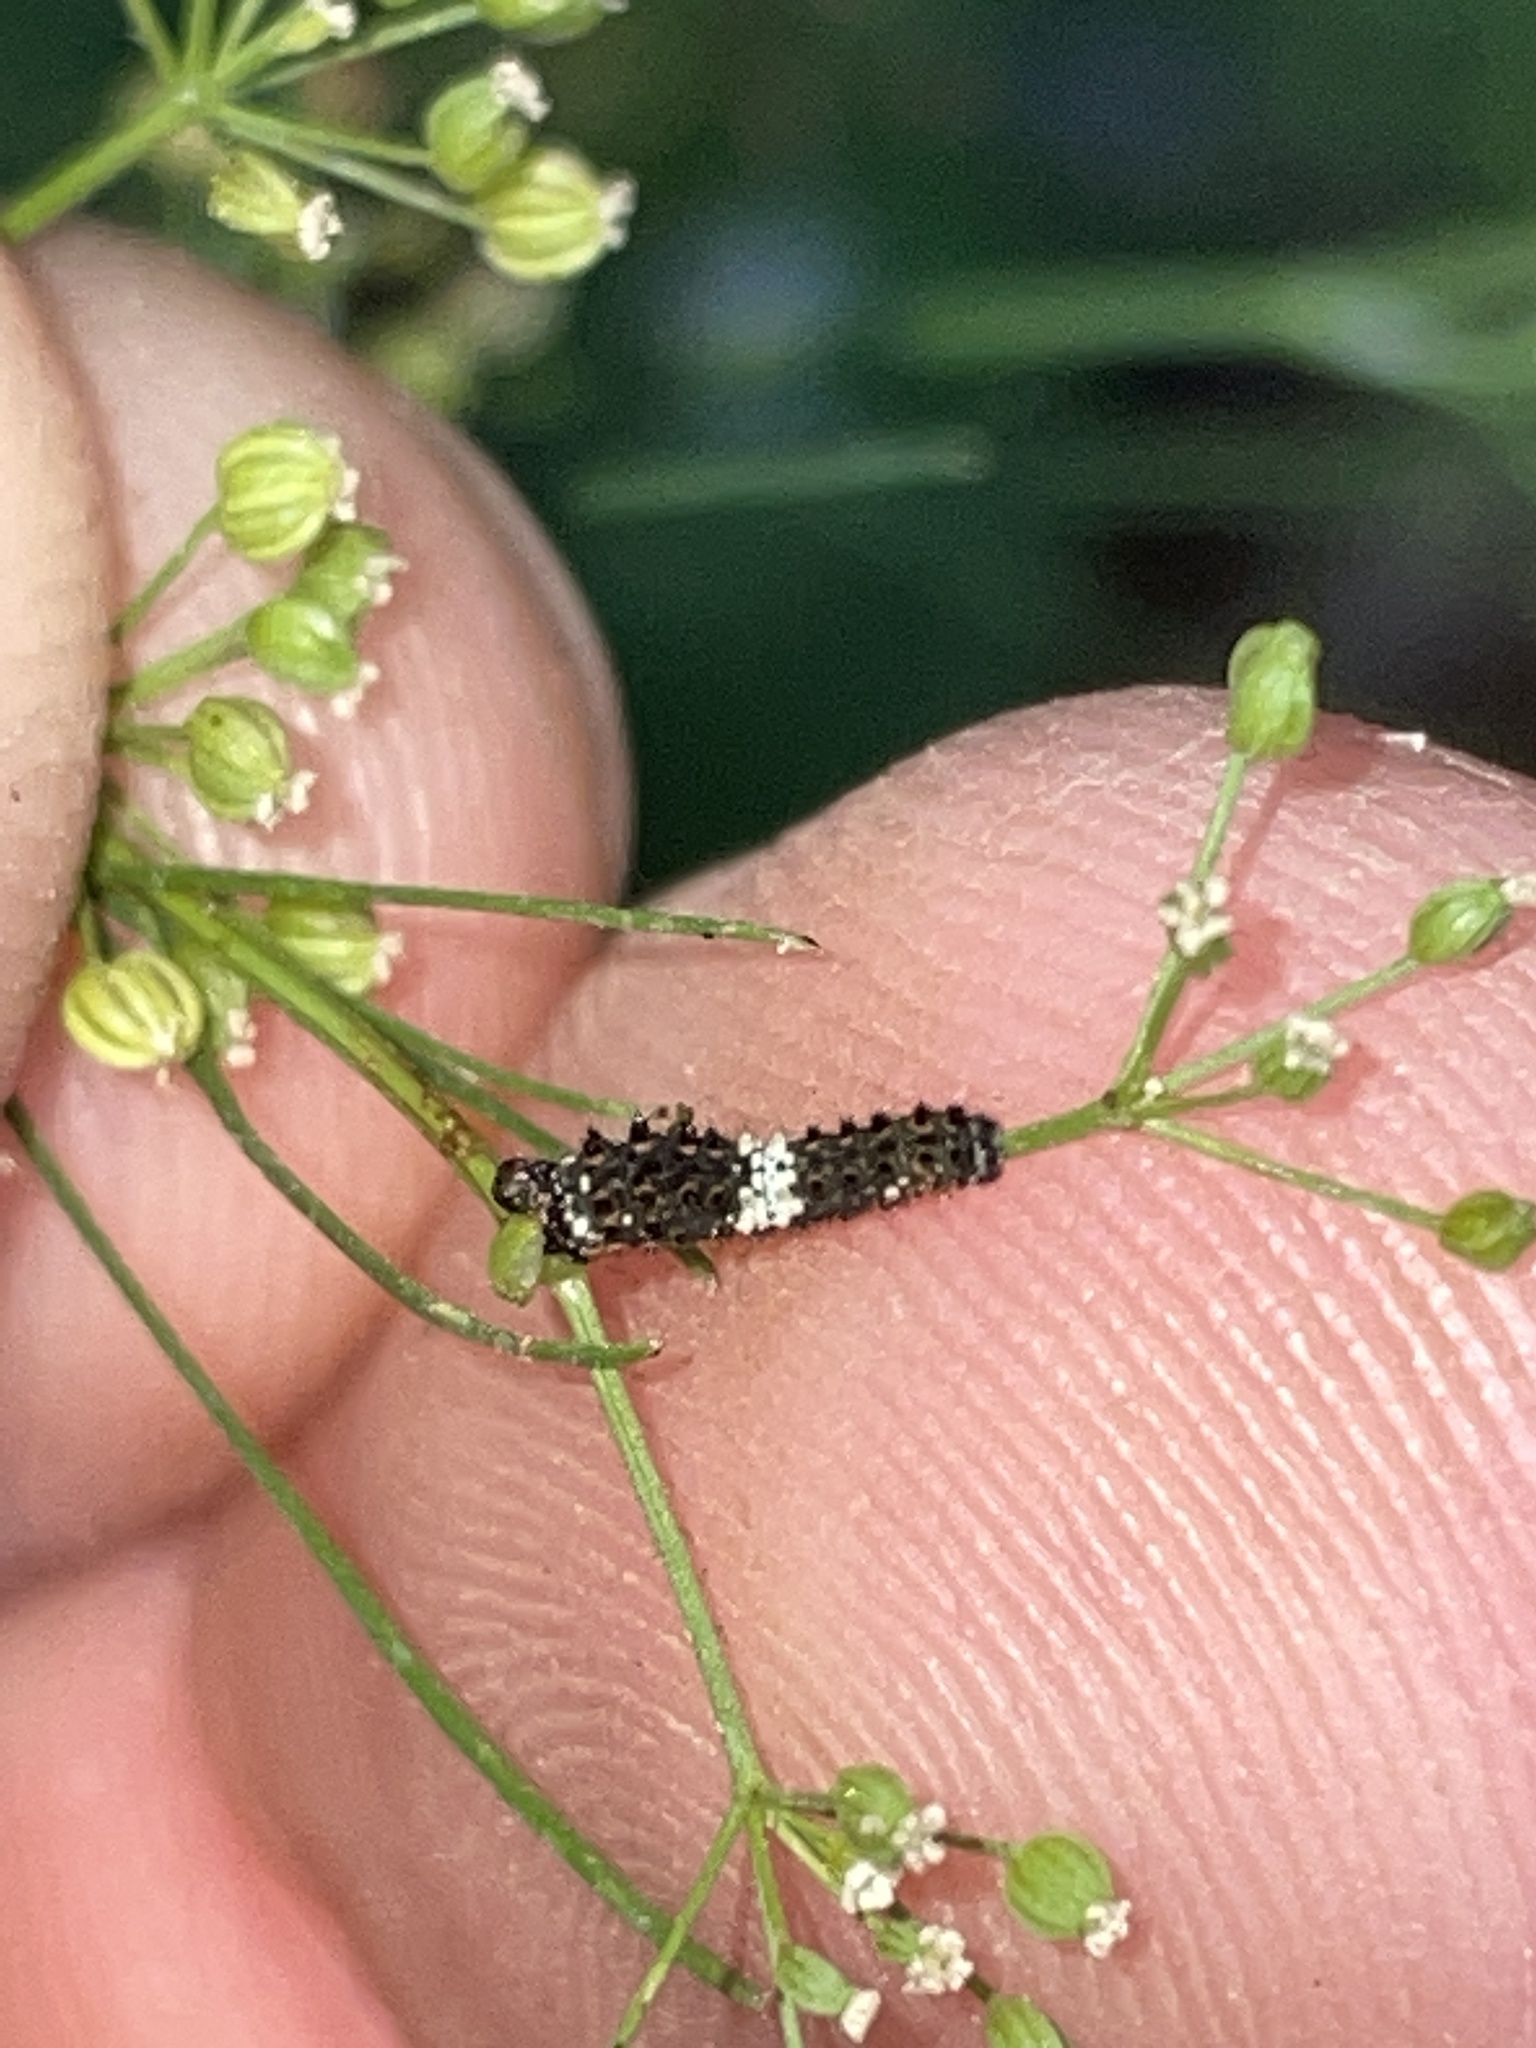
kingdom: Animalia
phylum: Arthropoda
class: Insecta
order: Lepidoptera
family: Papilionidae
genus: Papilio
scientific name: Papilio polyxenes
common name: Black swallowtail
